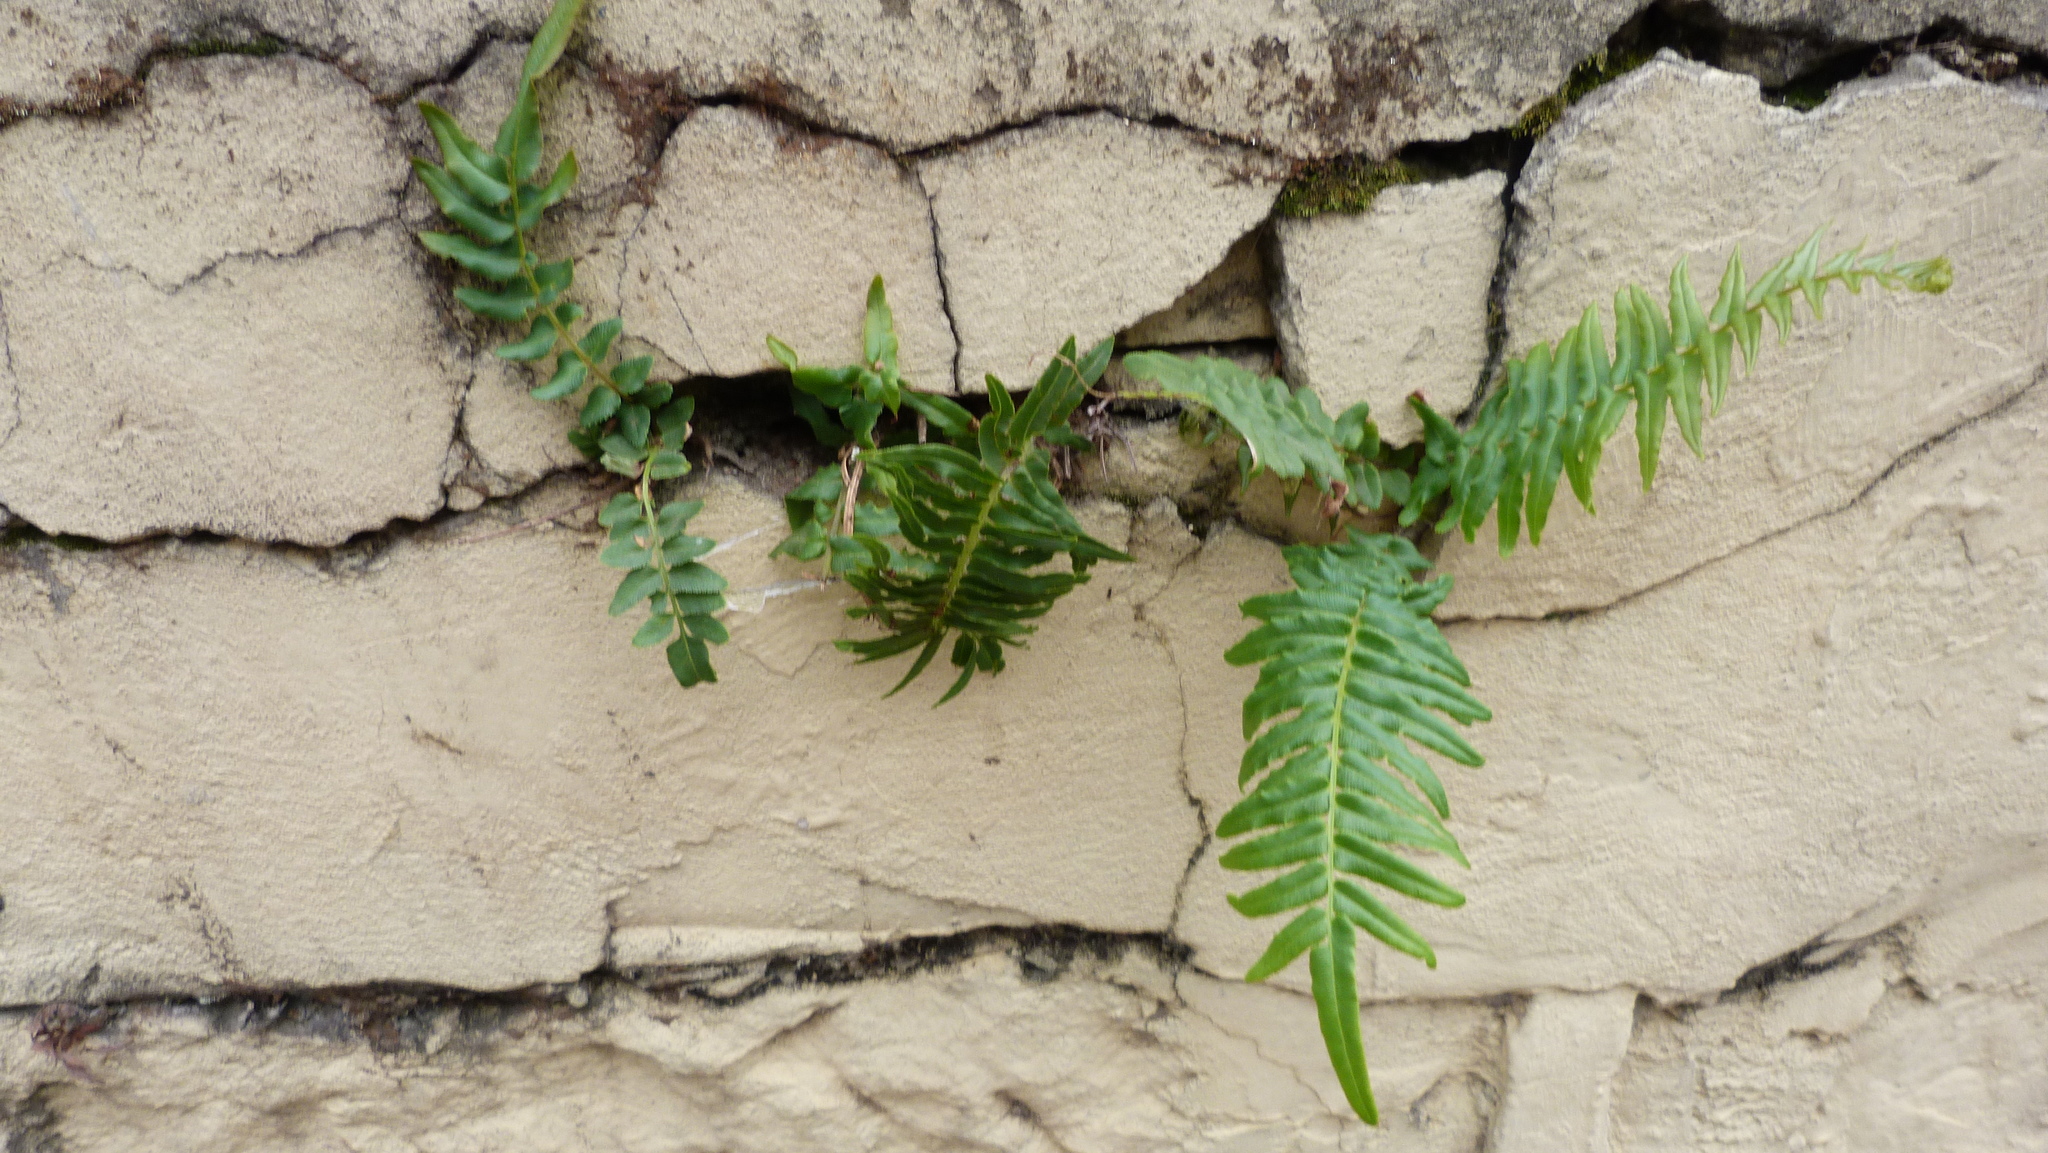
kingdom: Plantae
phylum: Tracheophyta
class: Polypodiopsida
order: Polypodiales
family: Pteridaceae
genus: Pteris
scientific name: Pteris vittata
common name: Ladder brake
